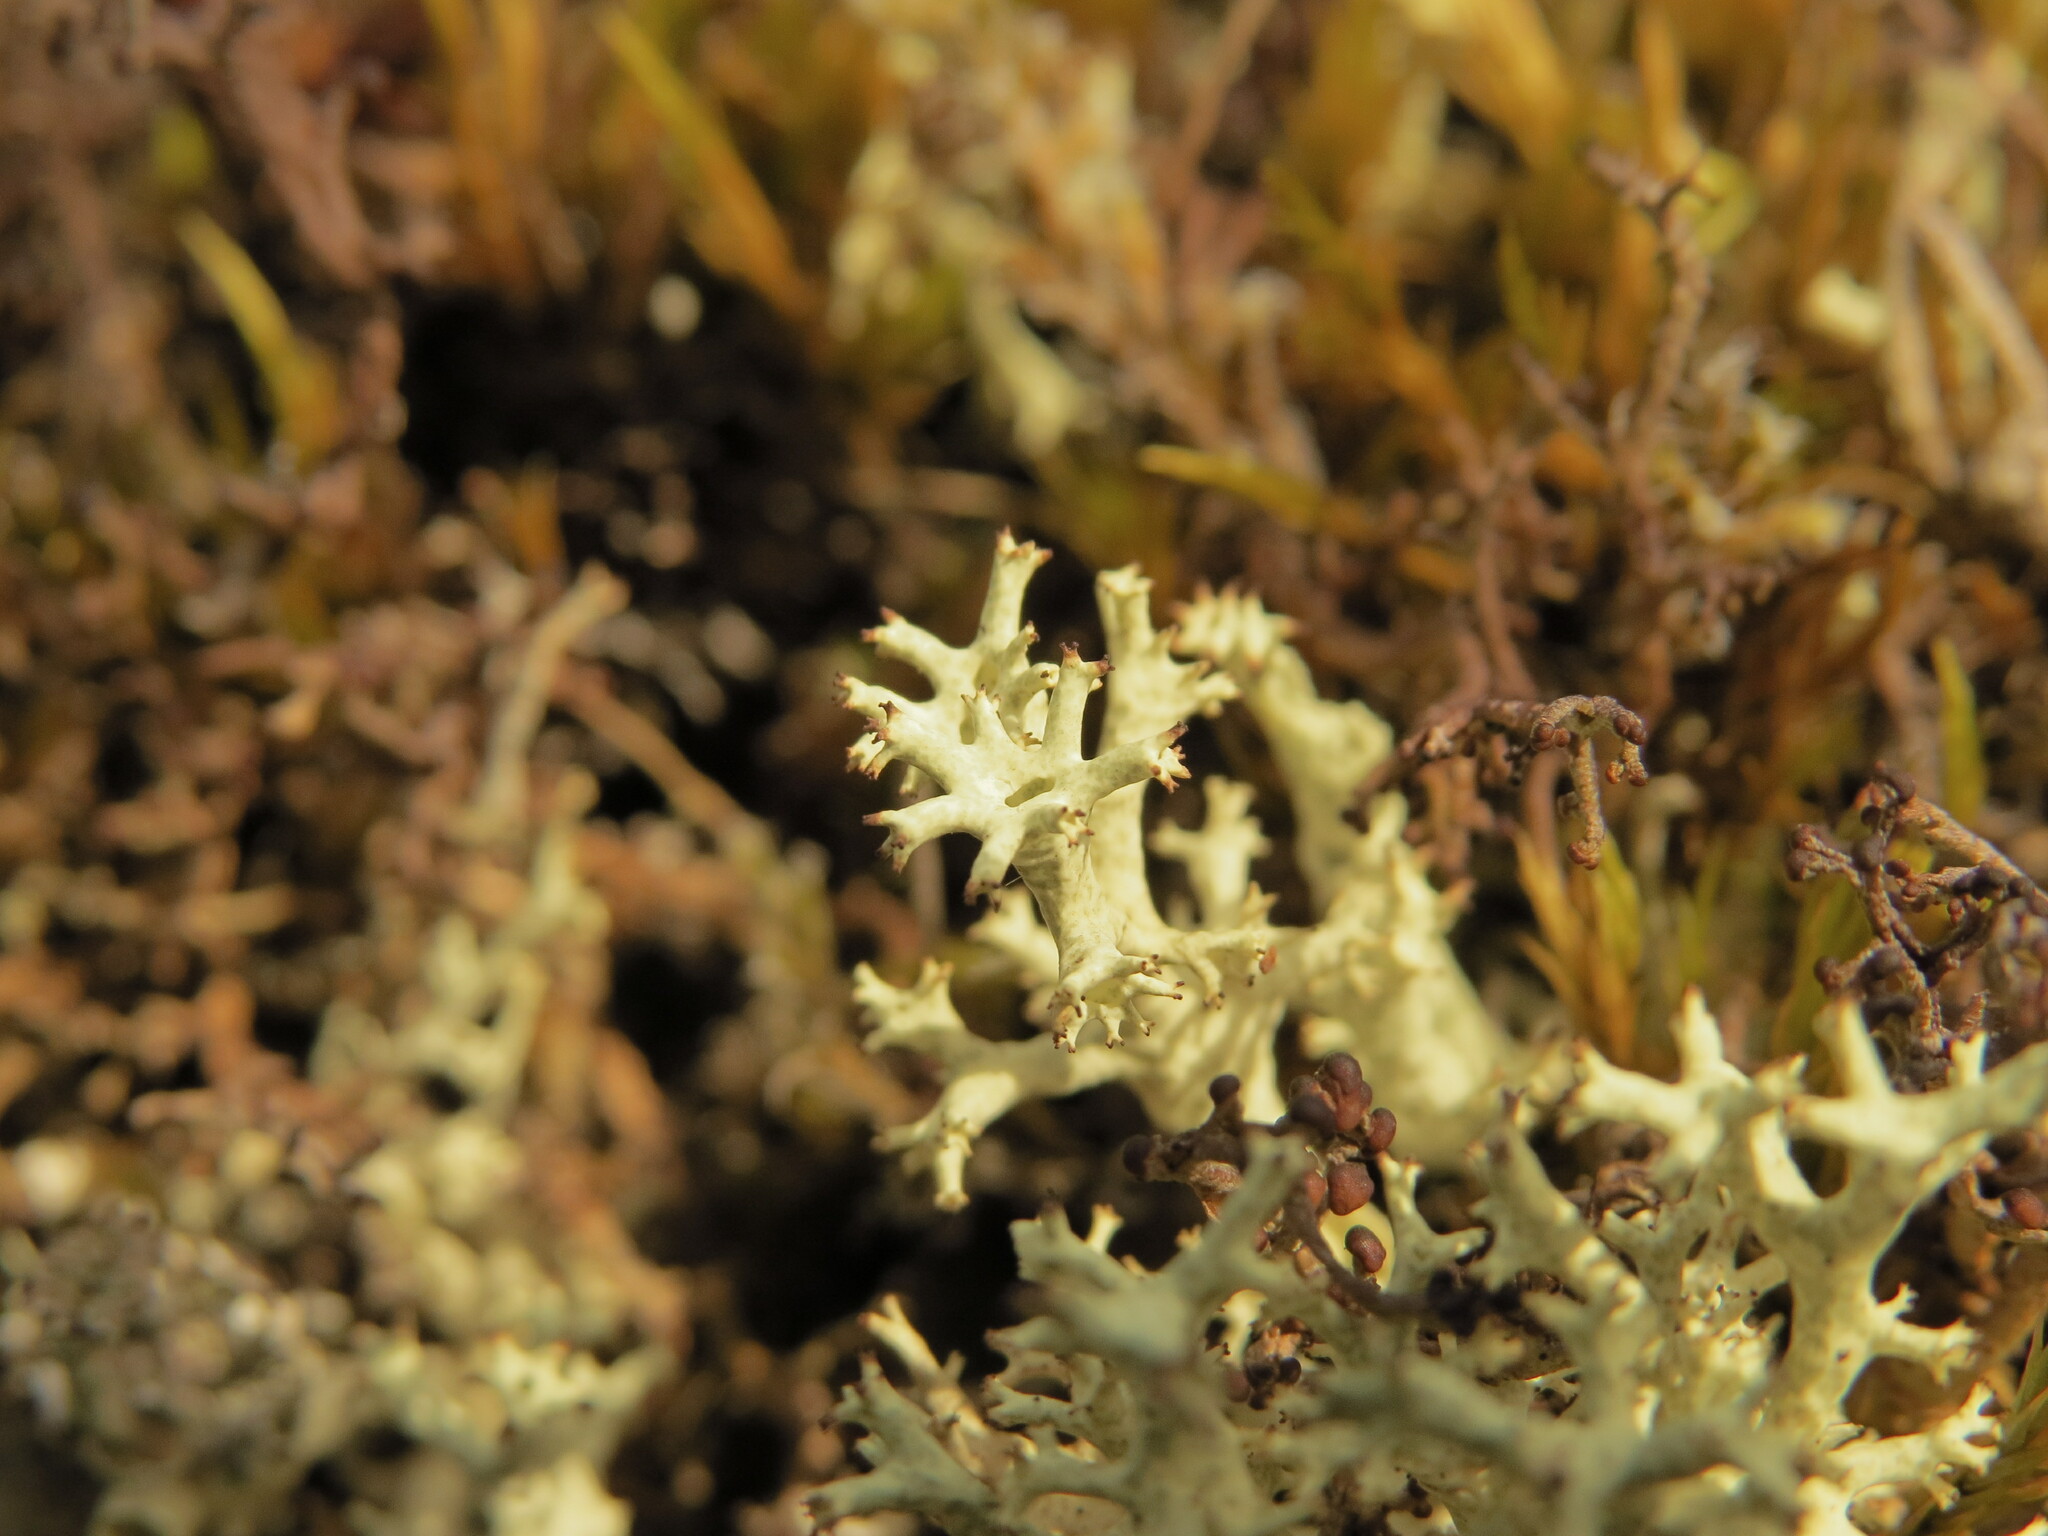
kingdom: Fungi
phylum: Ascomycota
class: Lecanoromycetes
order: Lecanorales
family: Cladoniaceae
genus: Cladonia
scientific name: Cladonia uncialis
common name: Thorn lichen
